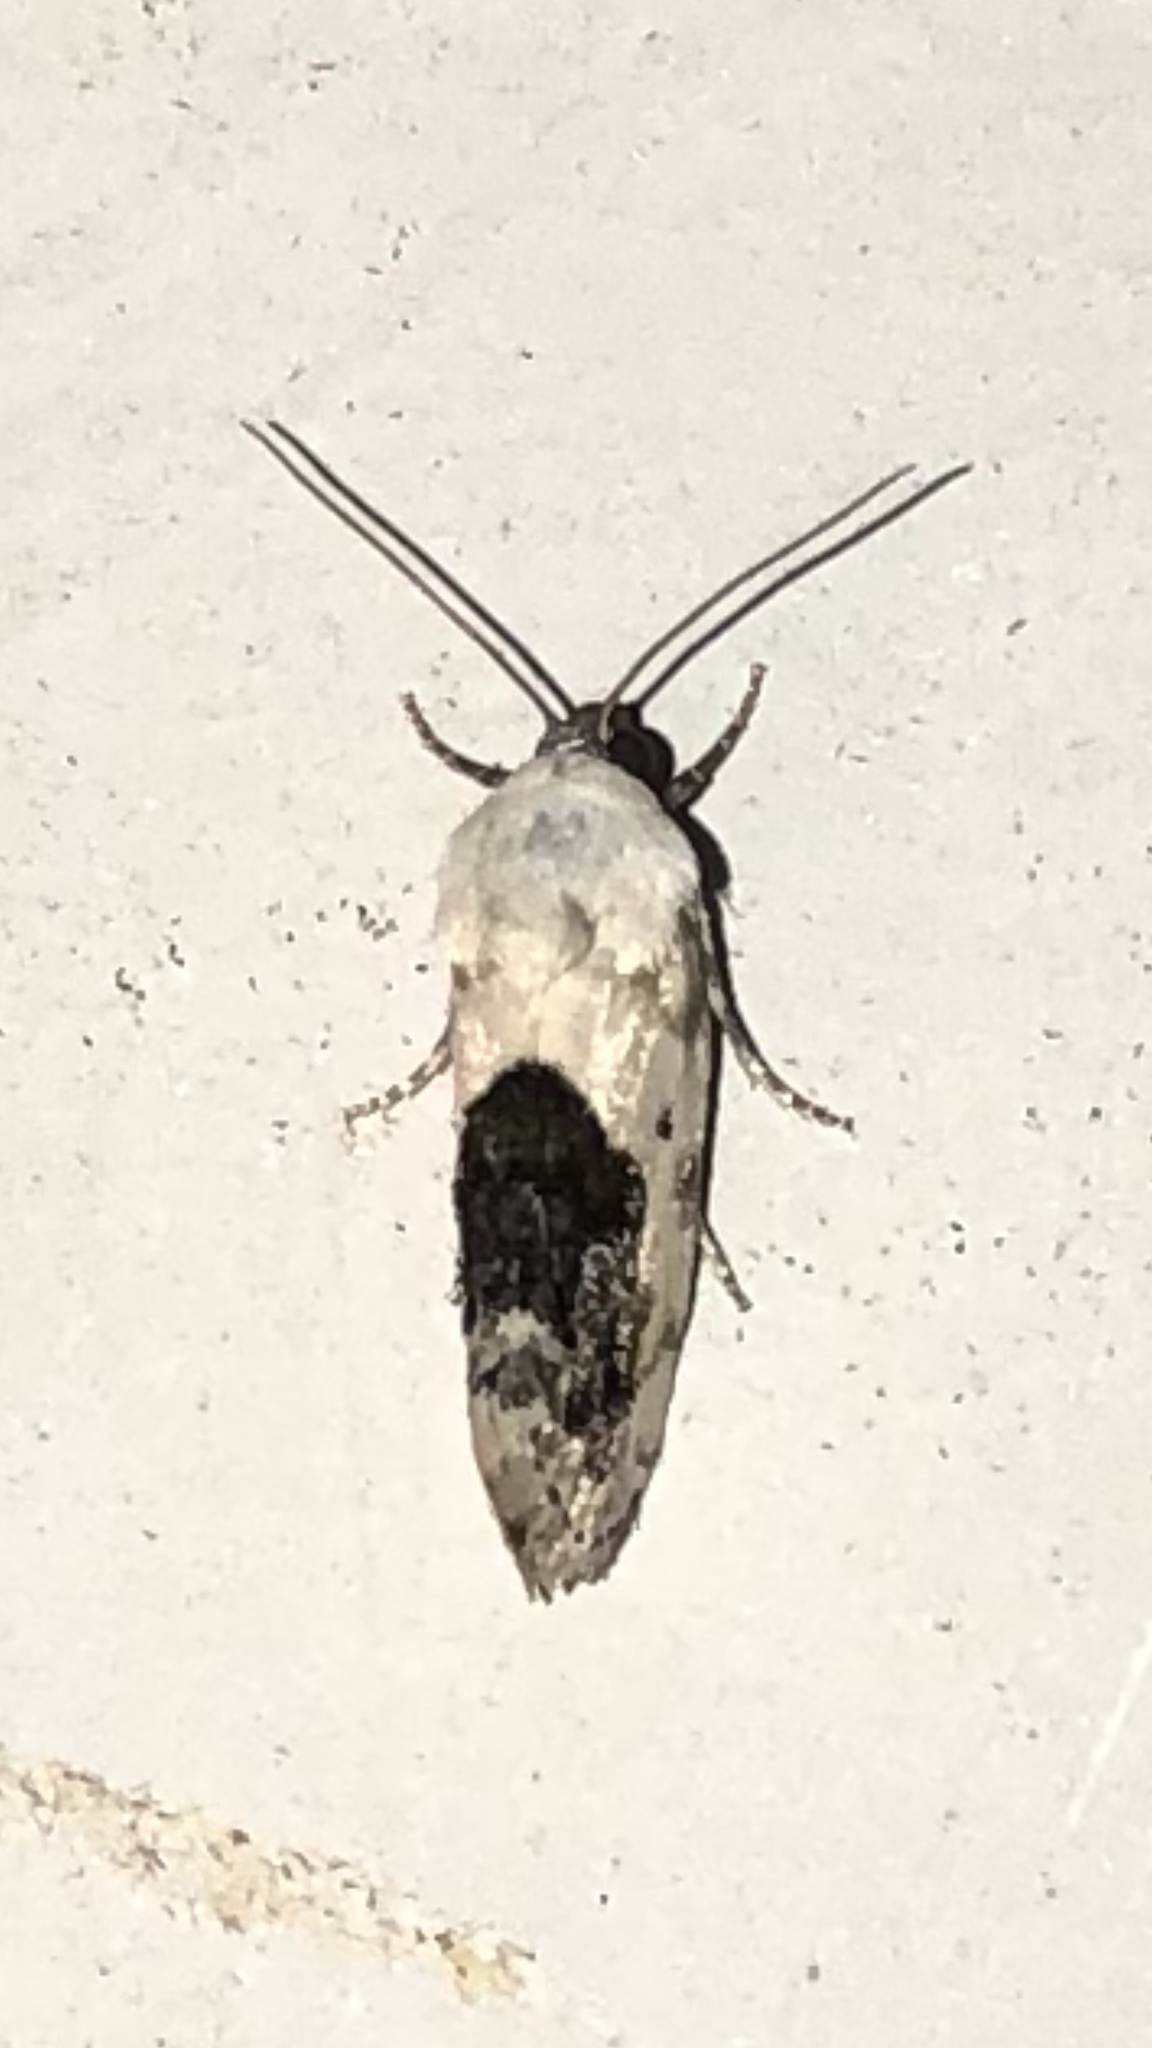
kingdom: Animalia
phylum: Arthropoda
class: Insecta
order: Lepidoptera
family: Noctuidae
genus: Acontia
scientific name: Acontia erastrioides
